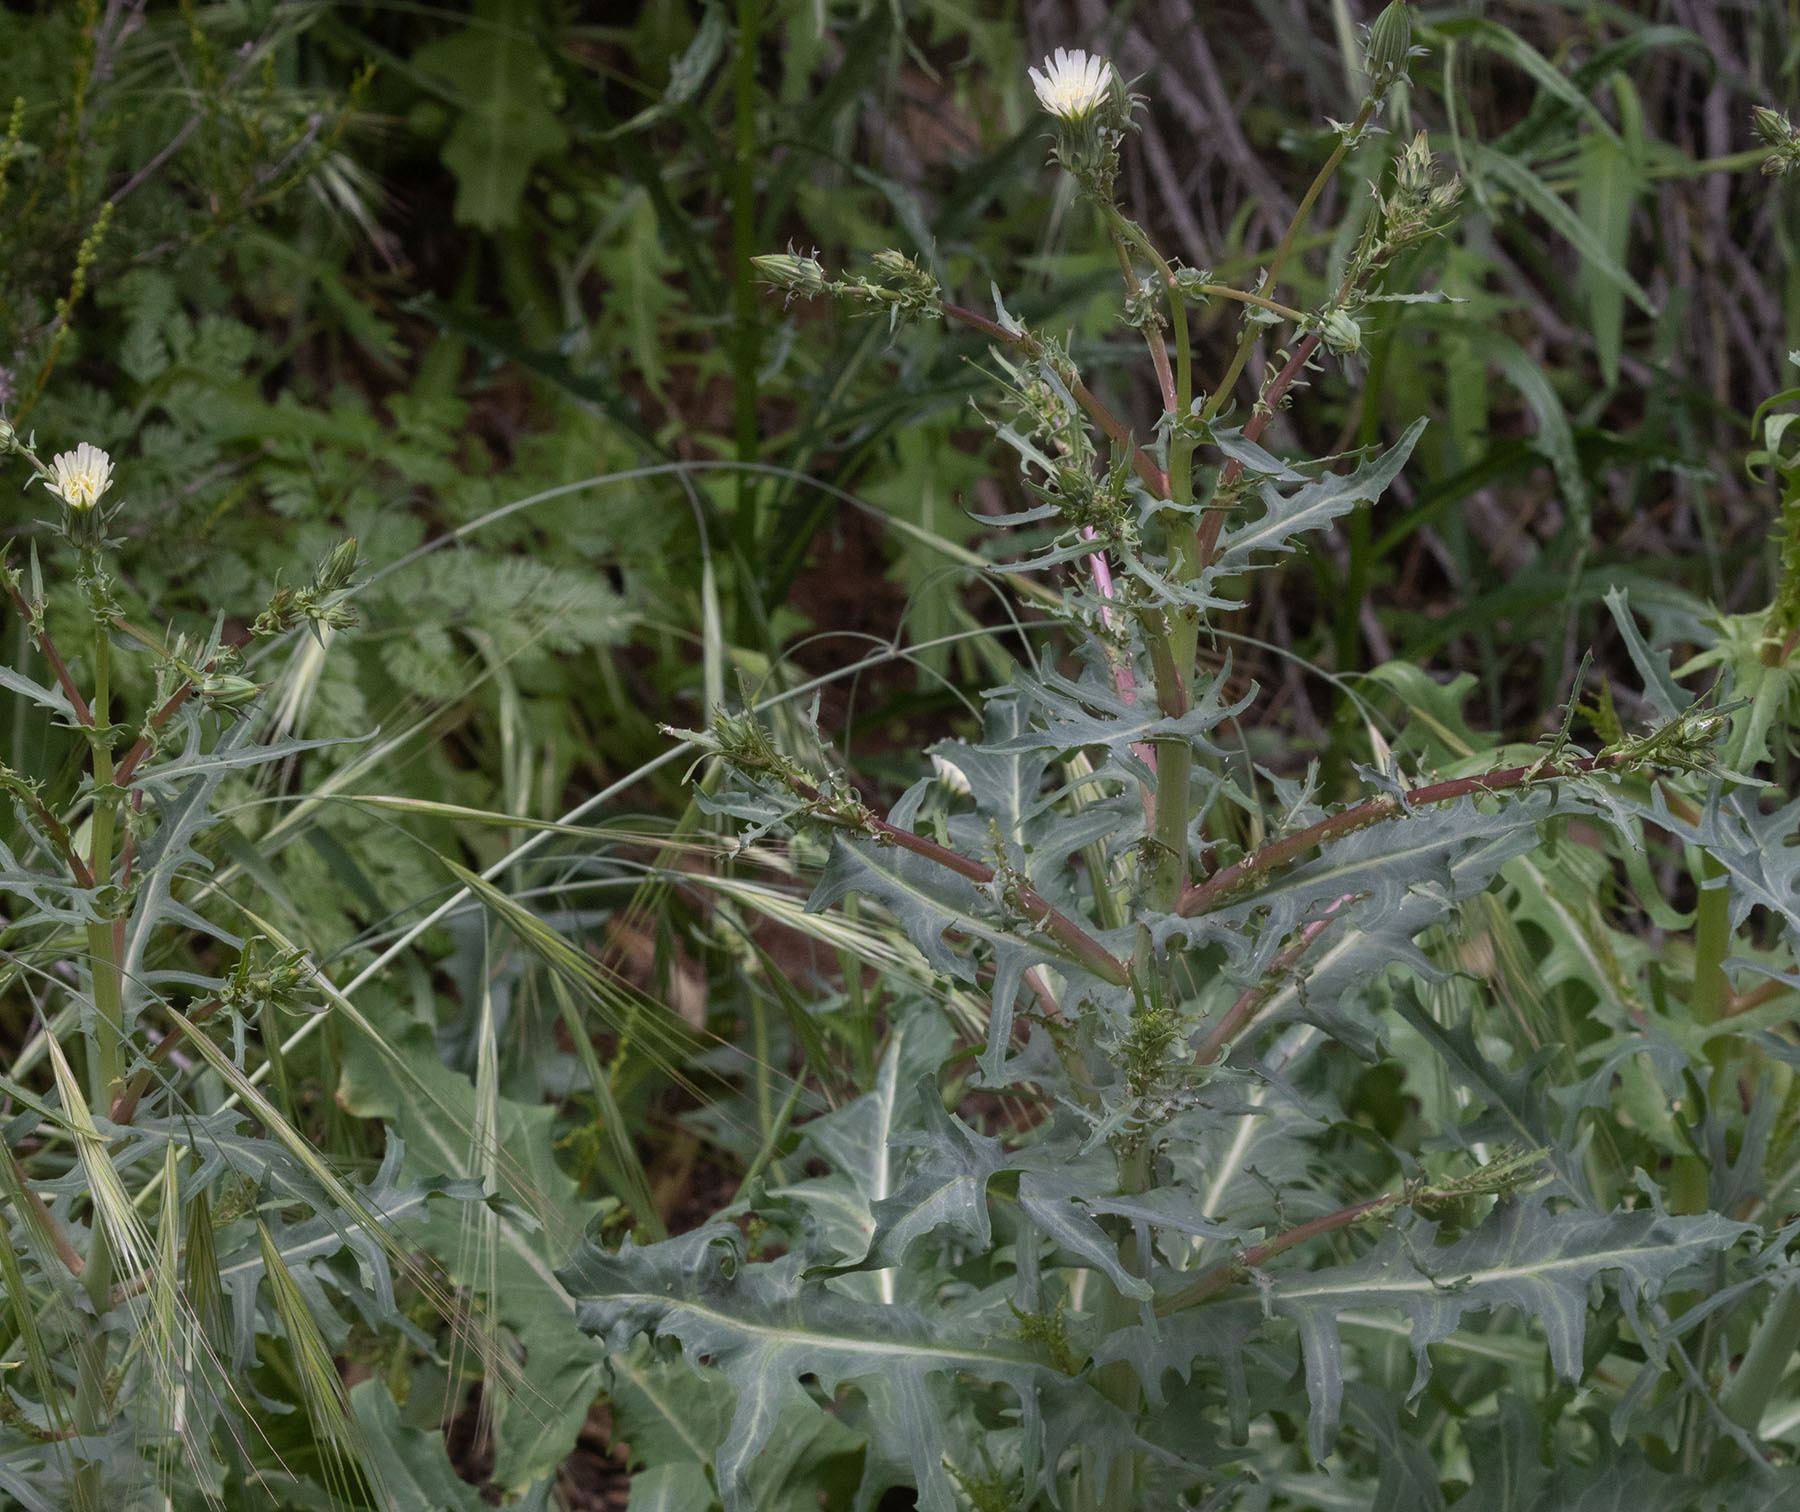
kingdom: Plantae
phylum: Tracheophyta
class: Magnoliopsida
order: Asterales
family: Asteraceae
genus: Rafinesquia
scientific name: Rafinesquia californica
